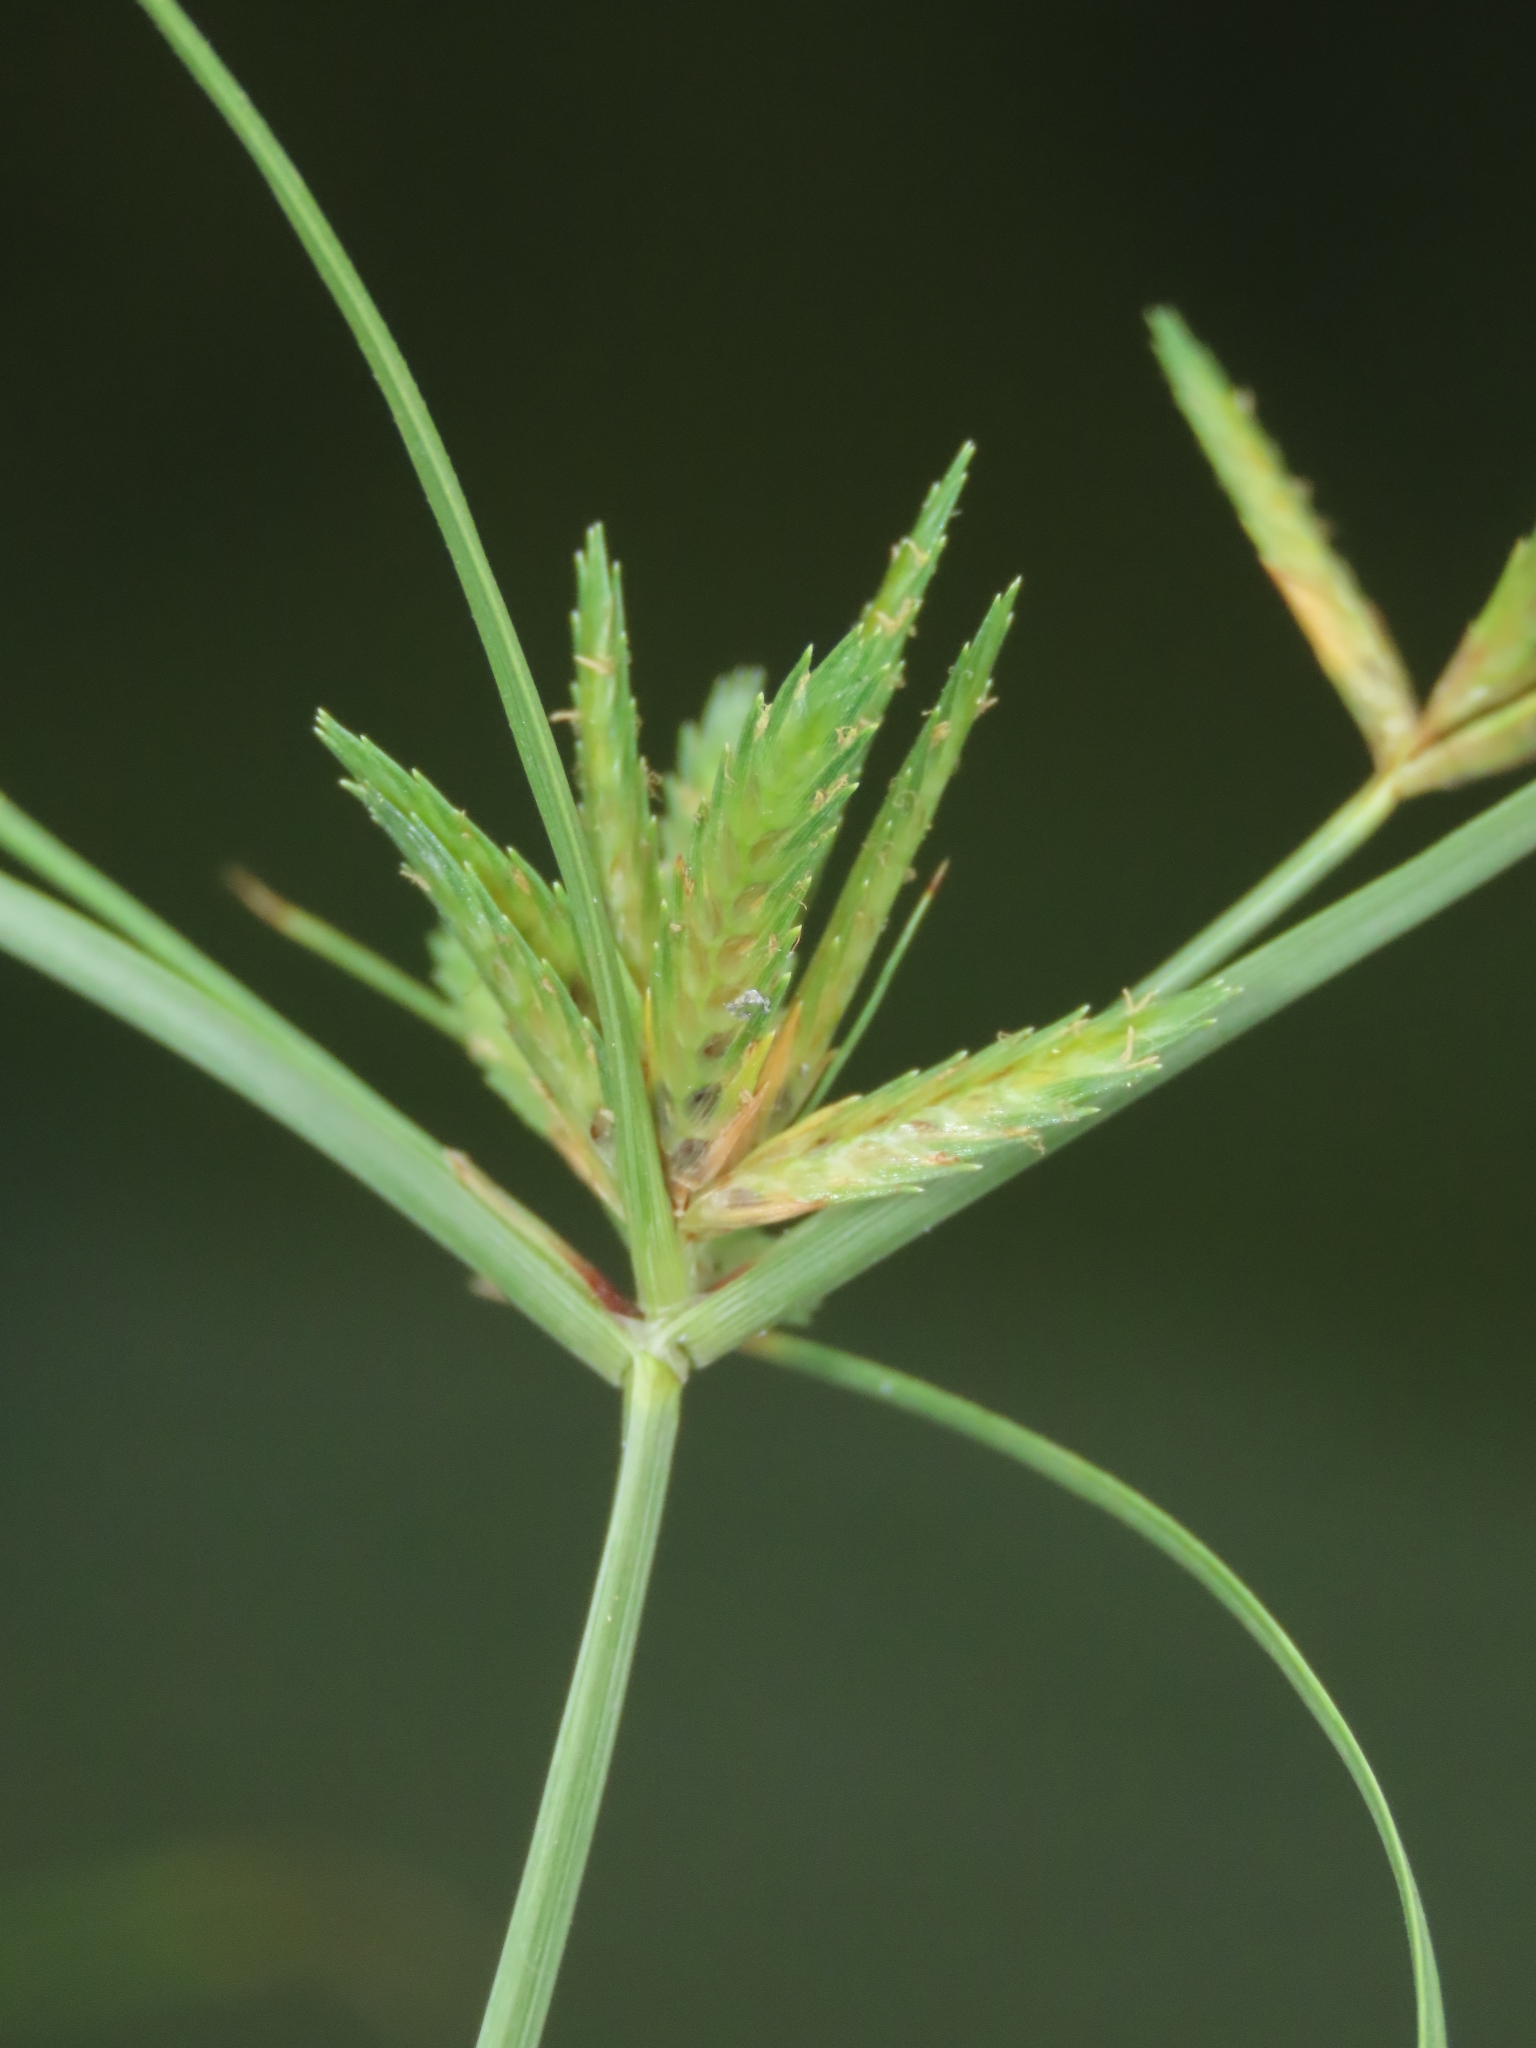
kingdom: Plantae
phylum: Tracheophyta
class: Liliopsida
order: Poales
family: Cyperaceae
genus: Cyperus
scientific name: Cyperus compressus
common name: Poorland flatsedge
